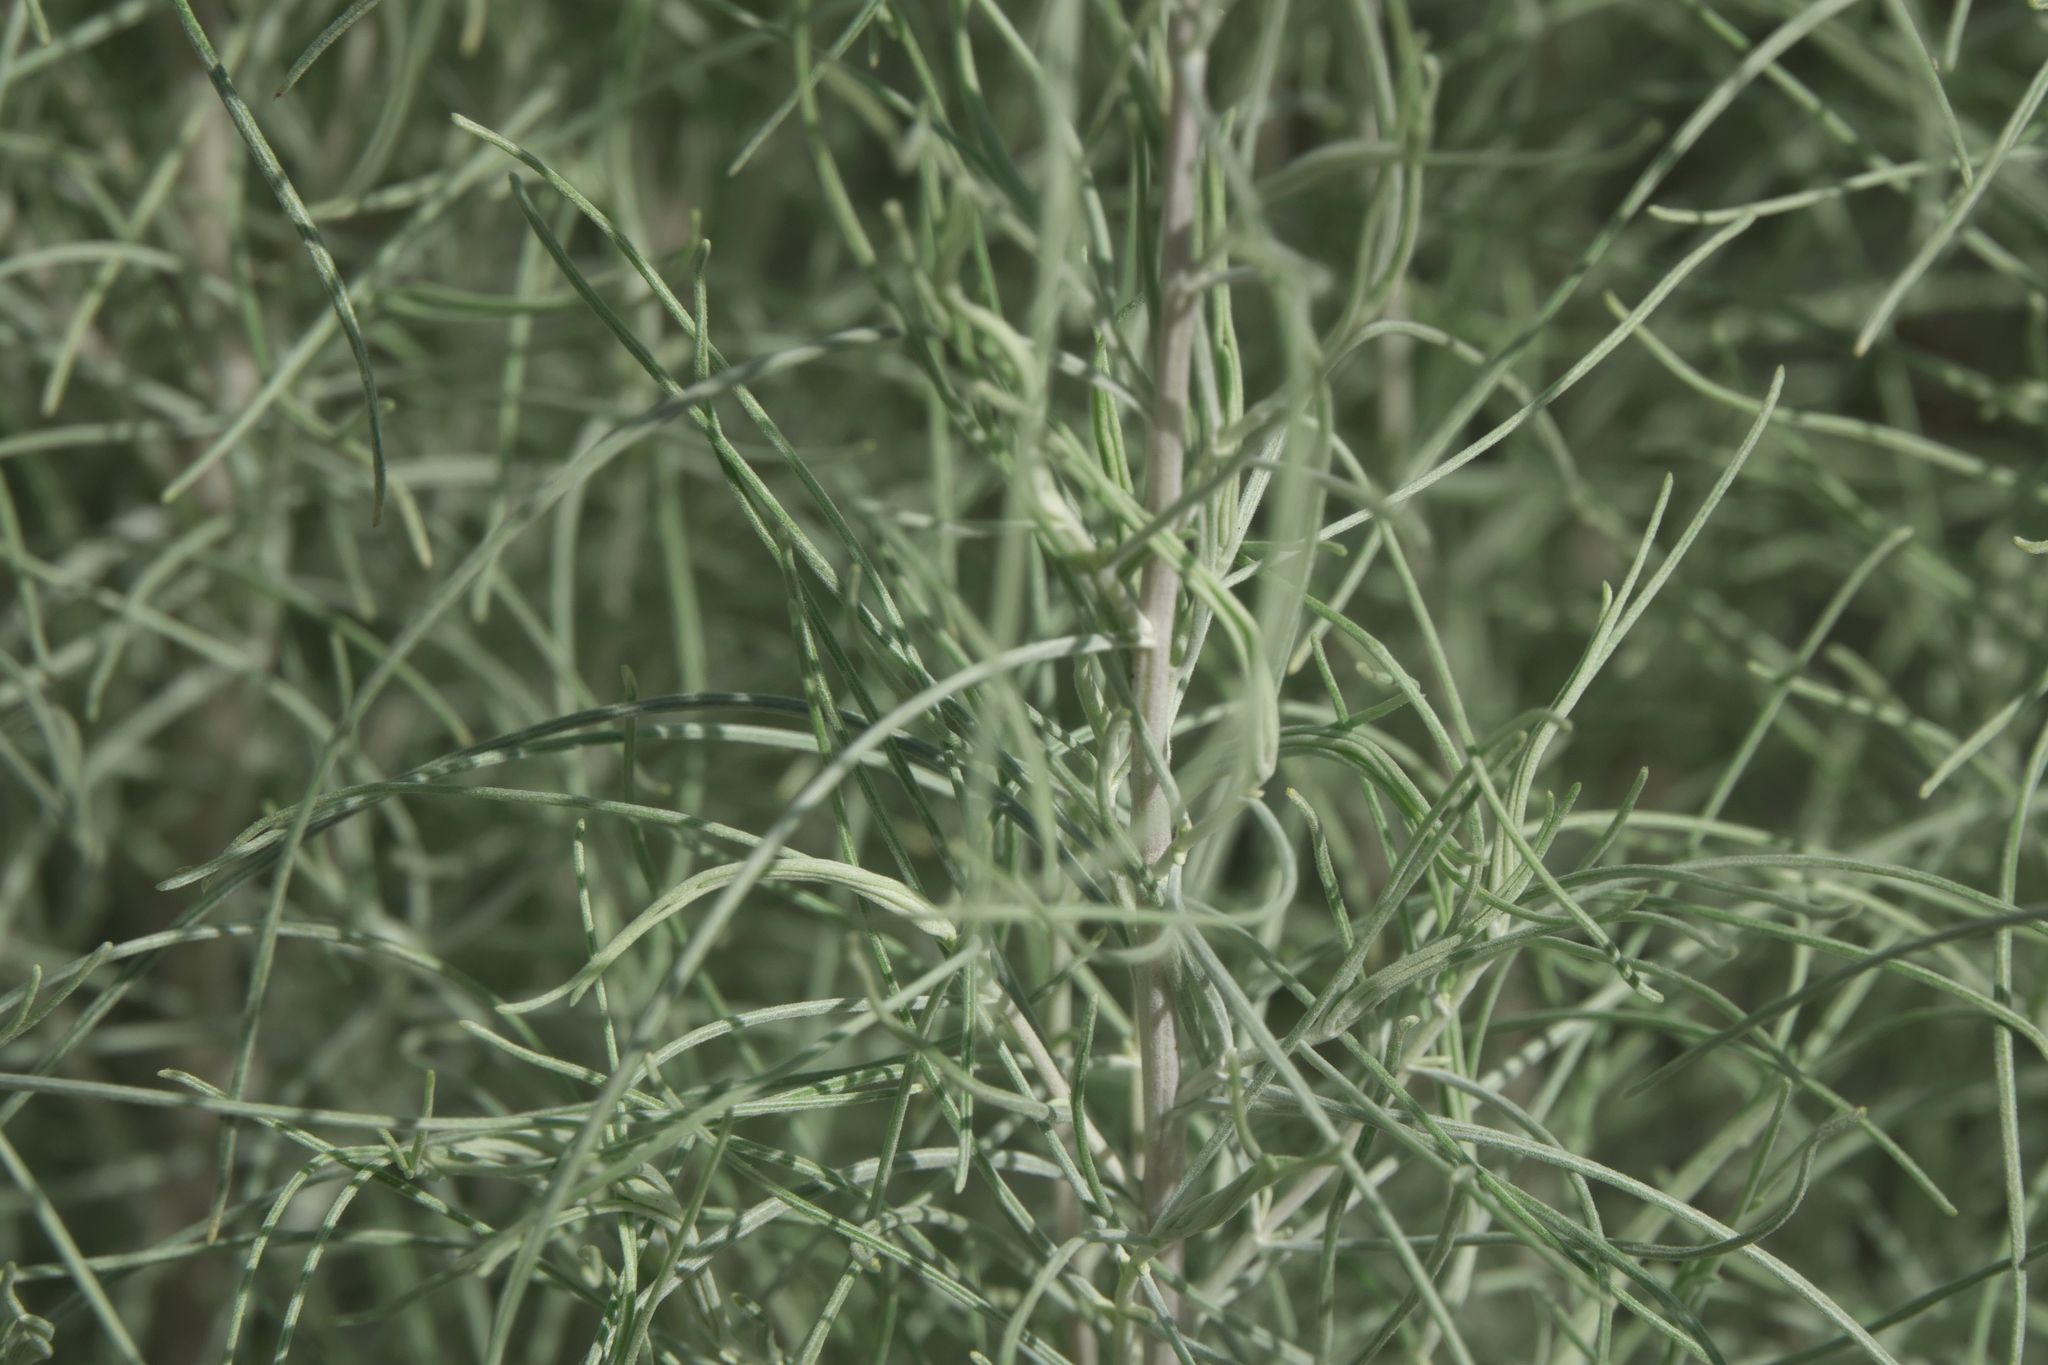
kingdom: Plantae
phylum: Tracheophyta
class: Magnoliopsida
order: Asterales
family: Asteraceae
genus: Artemisia
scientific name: Artemisia filifolia
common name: Sand-sage
